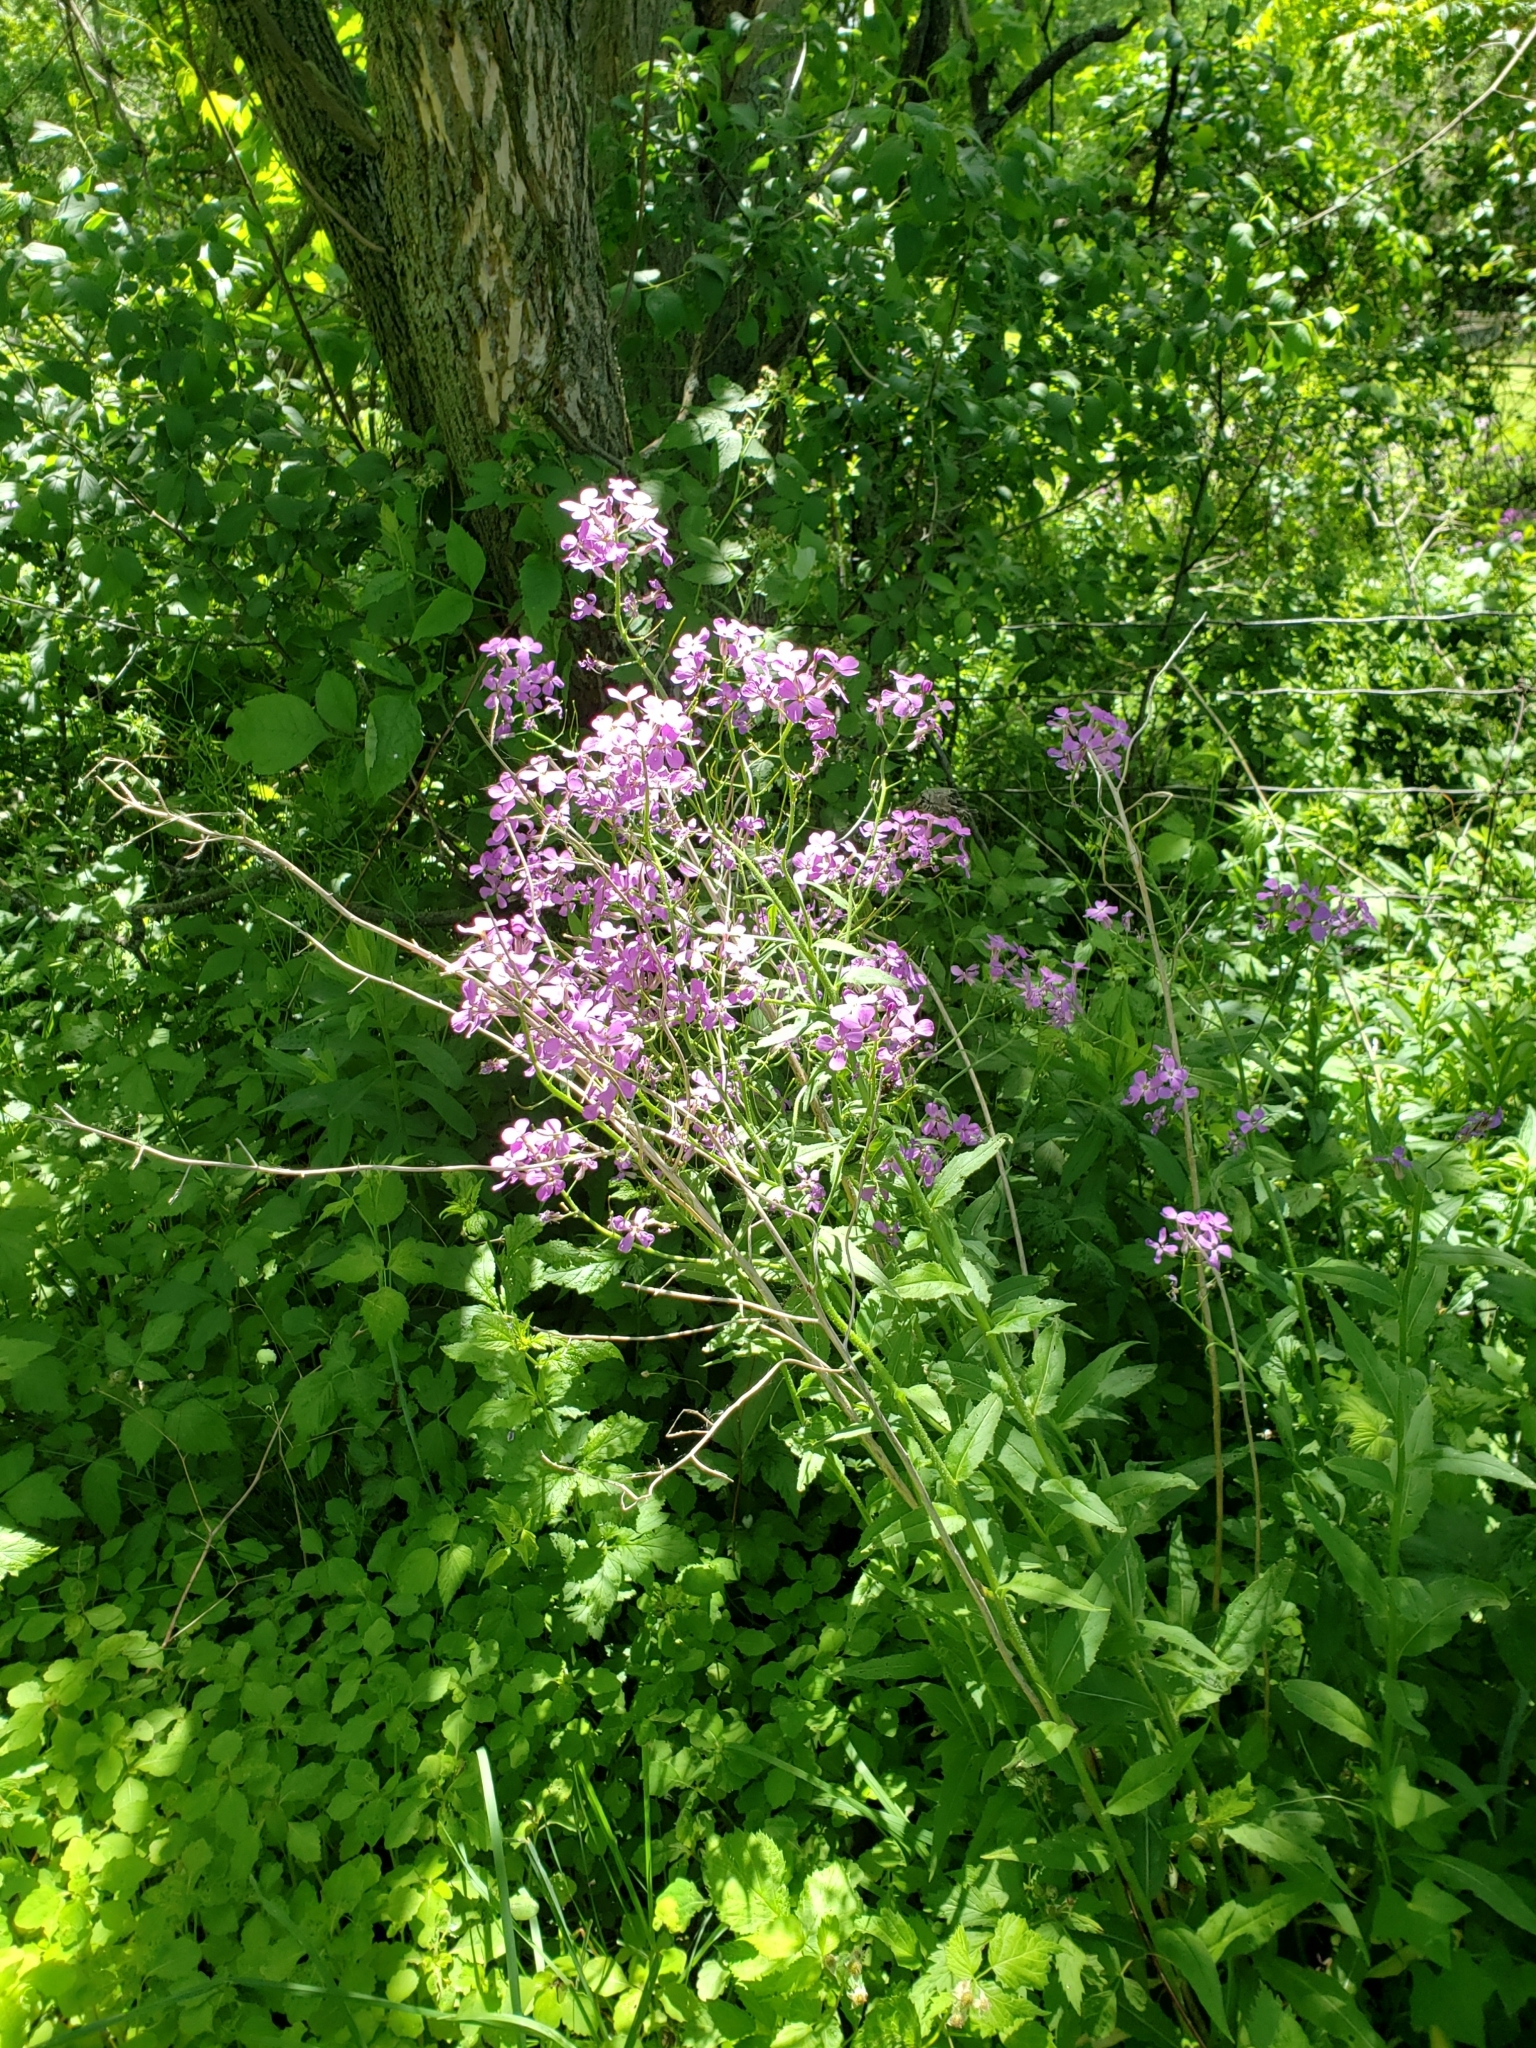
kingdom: Plantae
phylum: Tracheophyta
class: Magnoliopsida
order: Brassicales
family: Brassicaceae
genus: Hesperis
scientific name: Hesperis matronalis
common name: Dame's-violet
